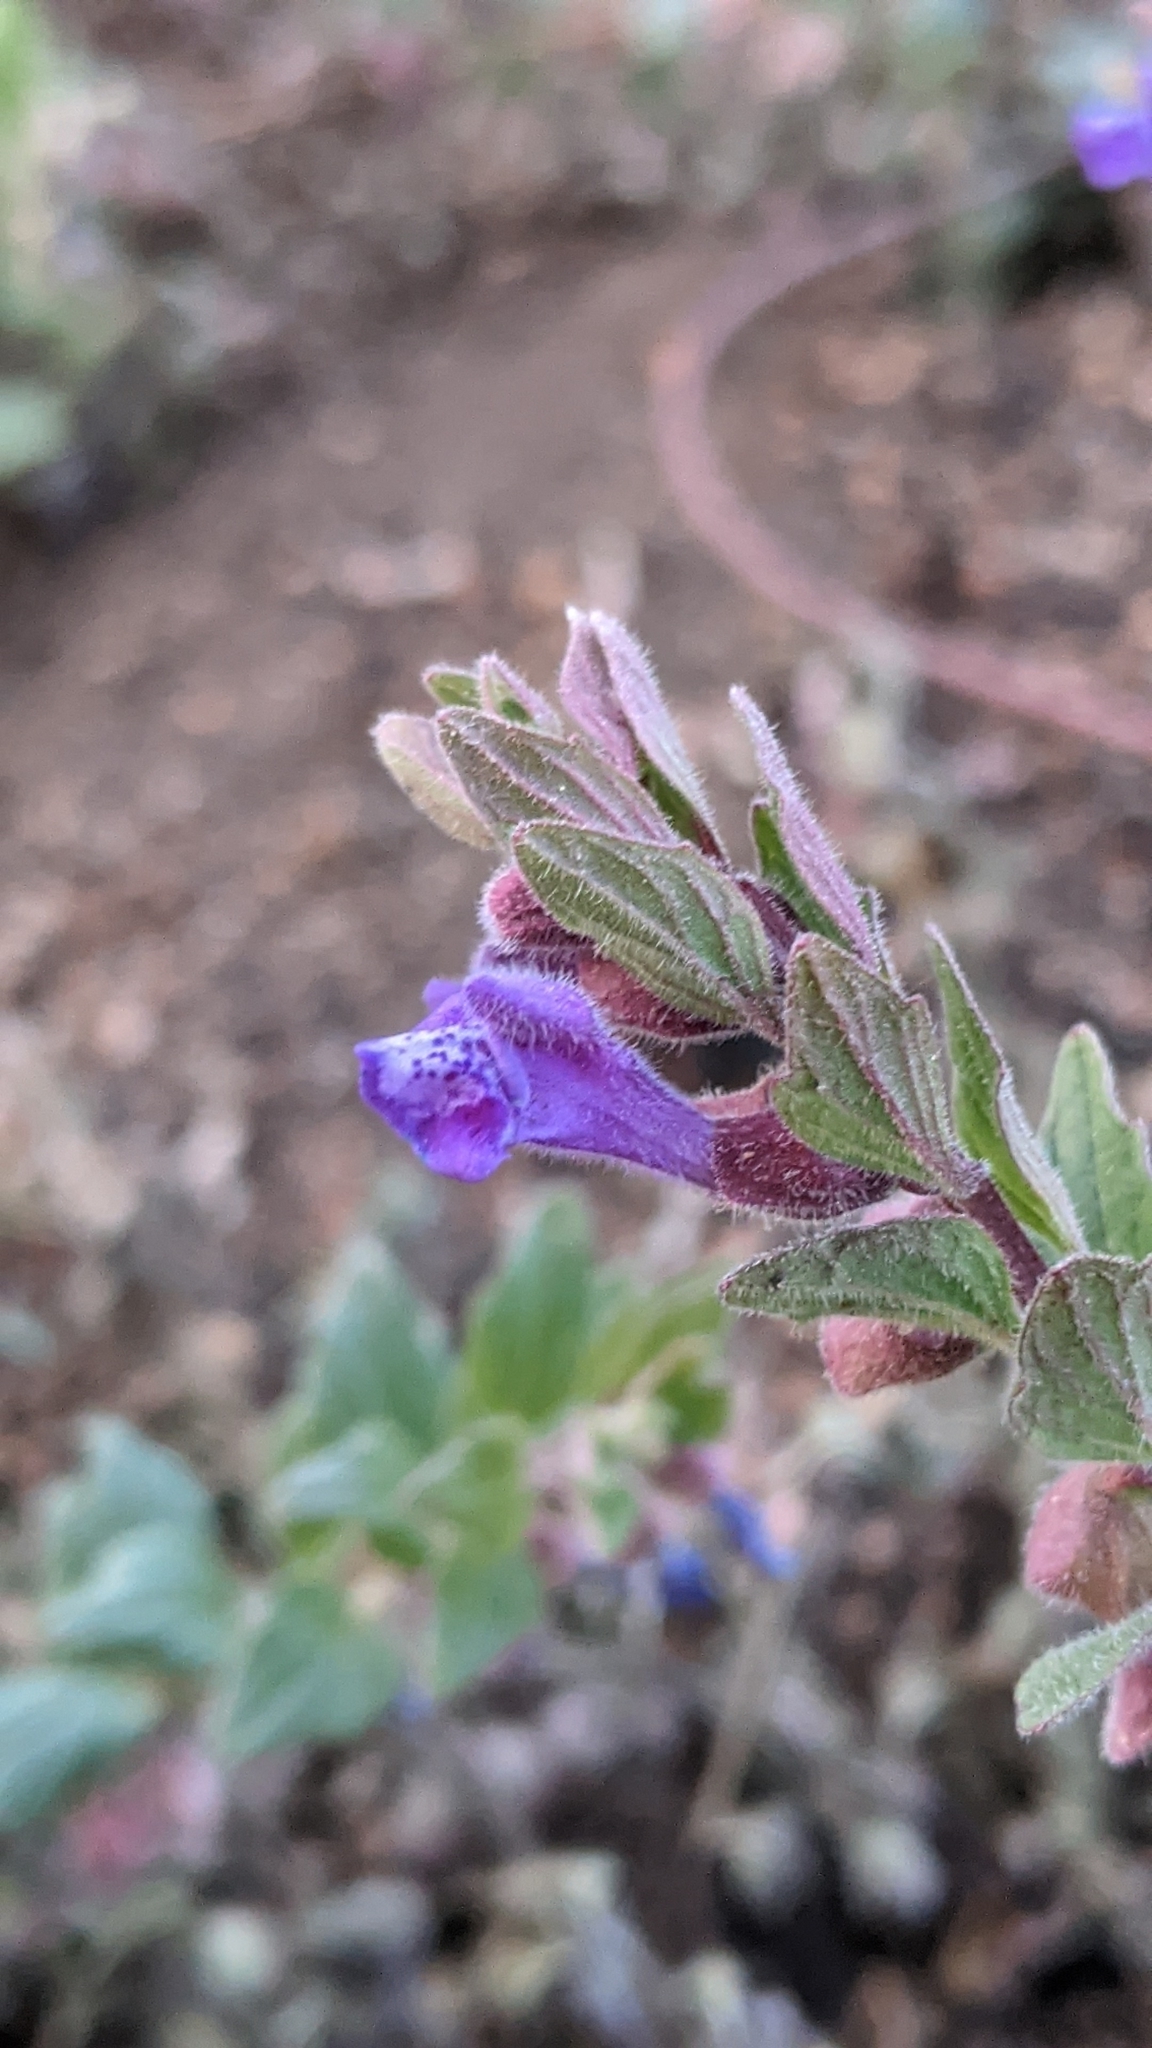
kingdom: Plantae
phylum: Tracheophyta
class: Magnoliopsida
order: Lamiales
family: Lamiaceae
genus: Scutellaria
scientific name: Scutellaria tuberosa
